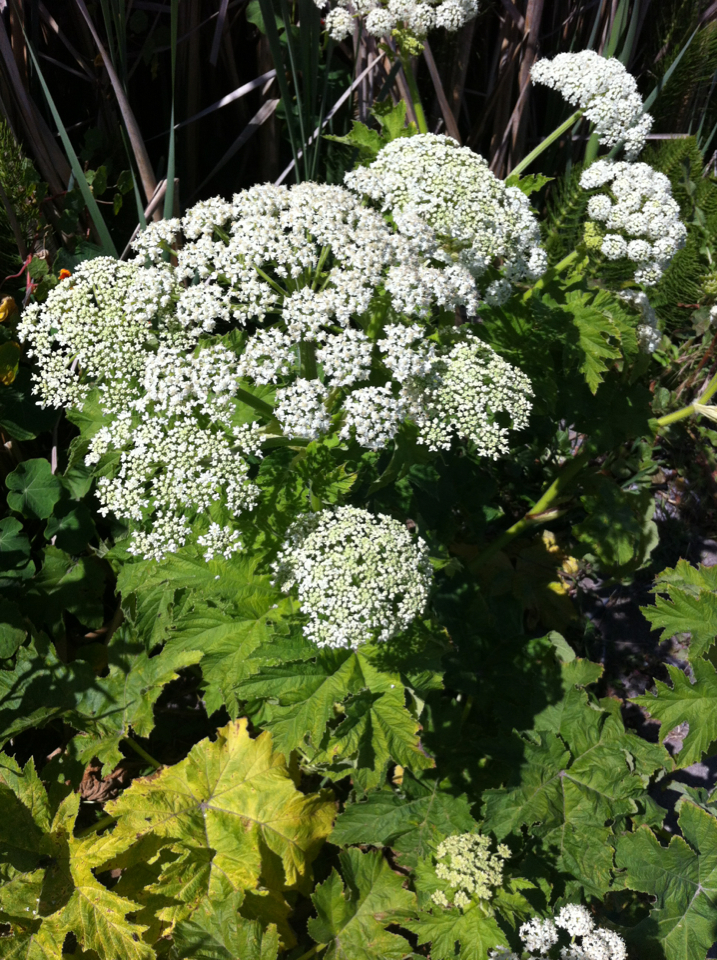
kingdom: Plantae
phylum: Tracheophyta
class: Magnoliopsida
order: Apiales
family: Apiaceae
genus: Heracleum
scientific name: Heracleum maximum
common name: American cow parsnip
